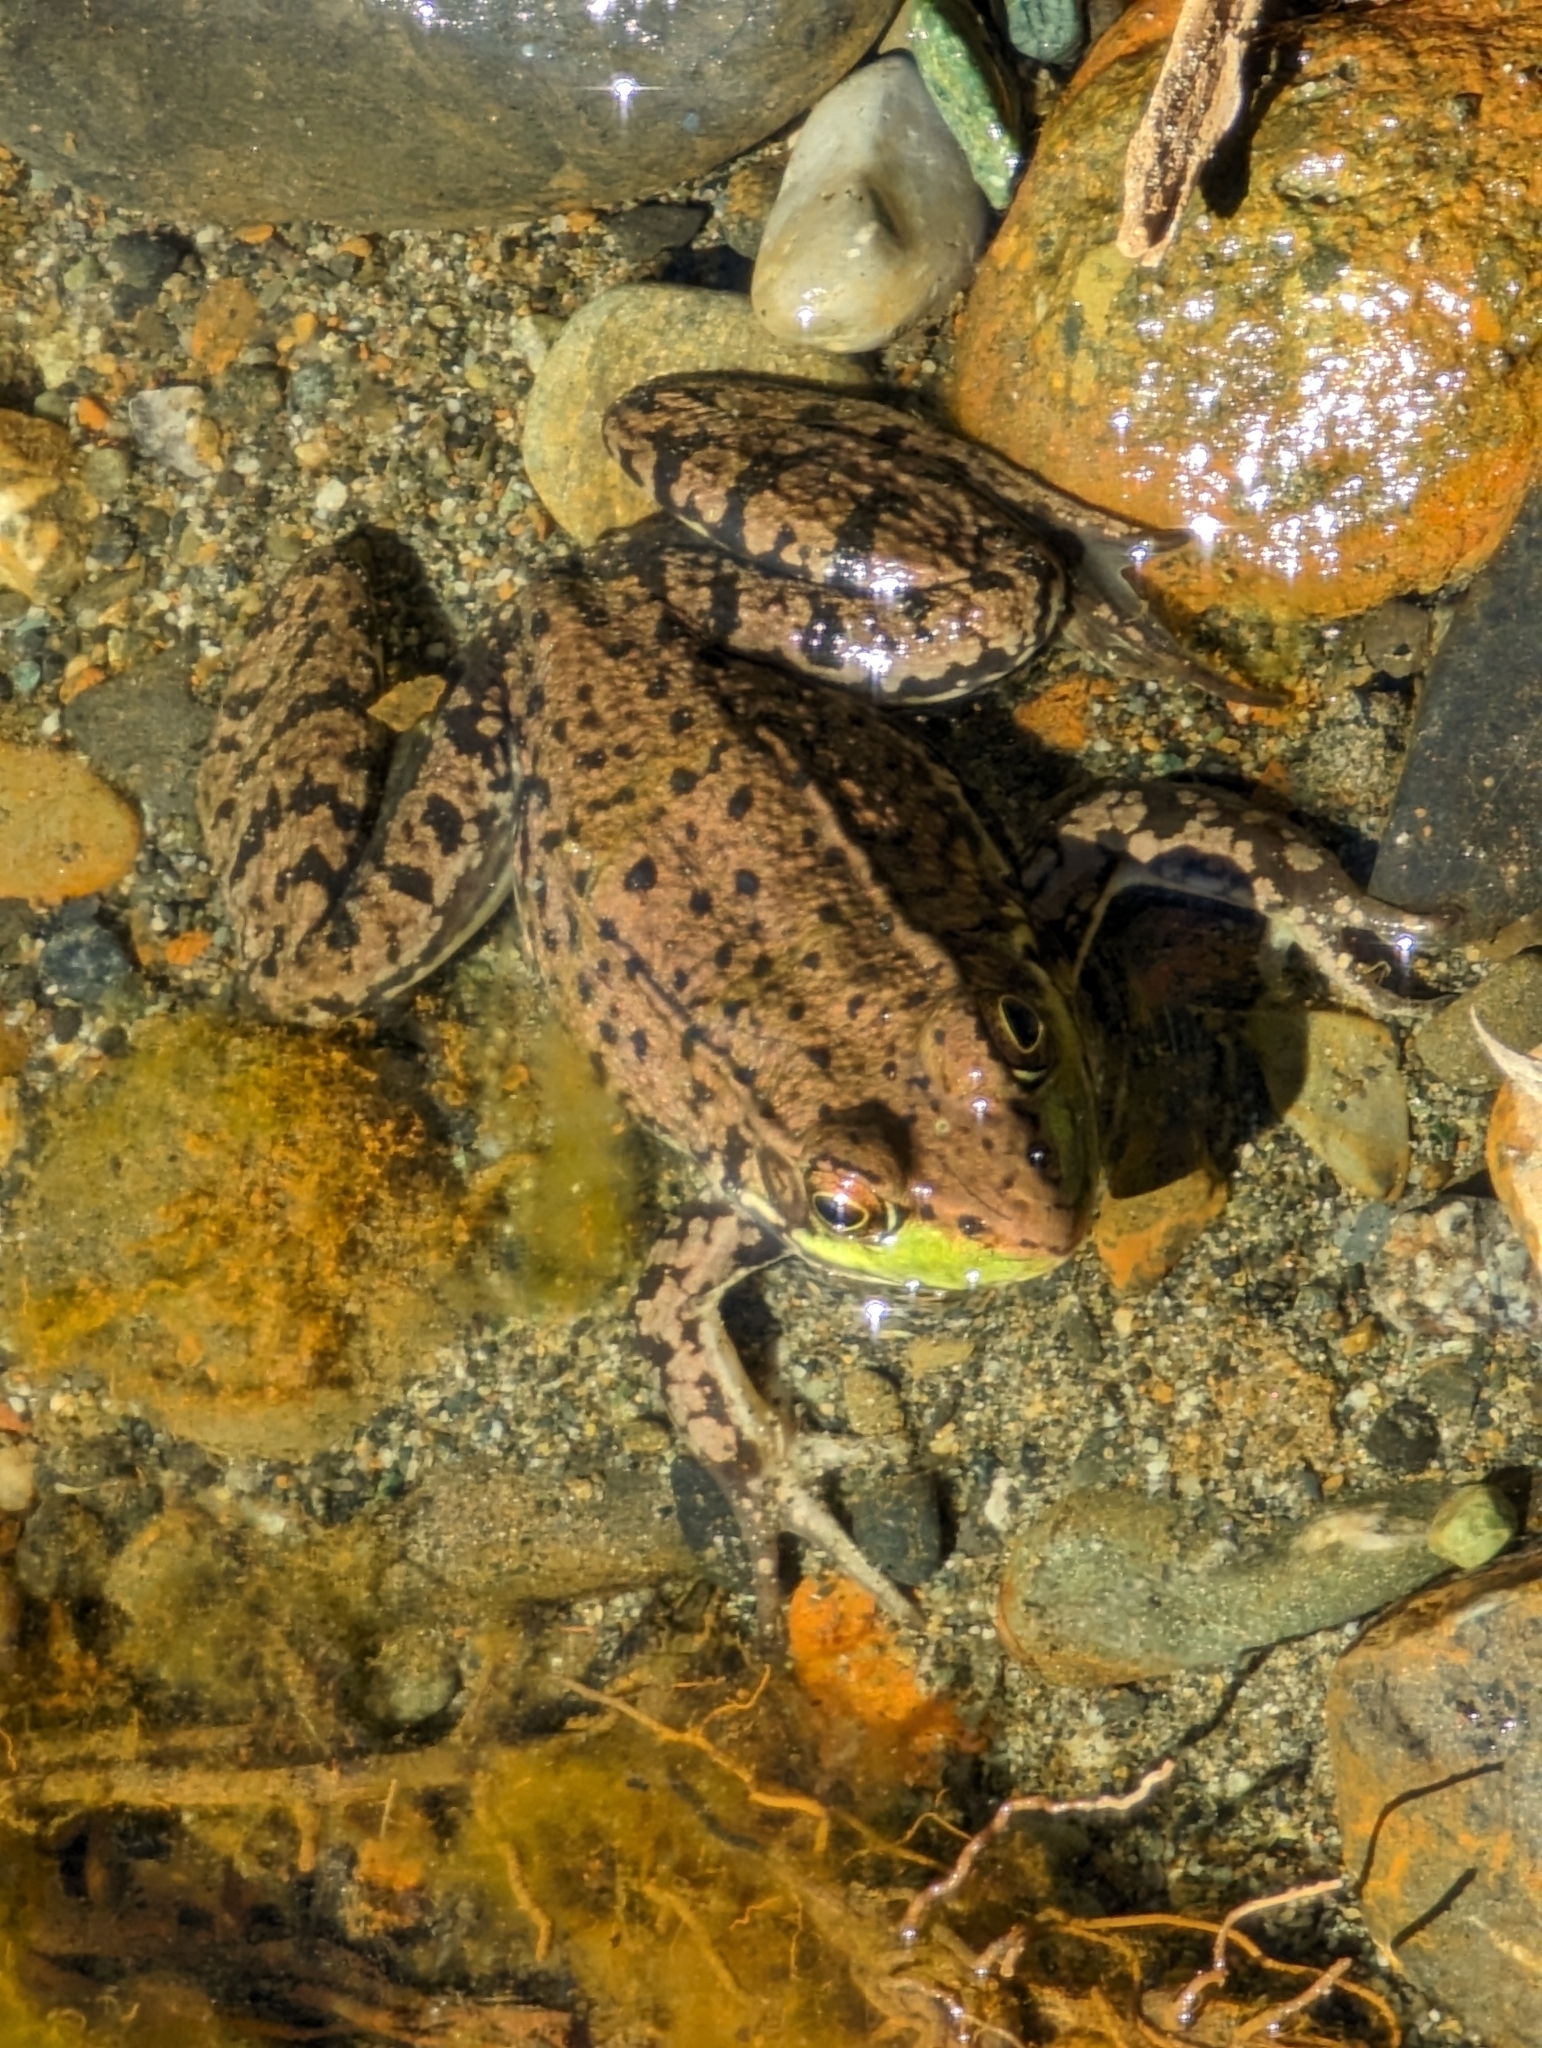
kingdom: Animalia
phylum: Chordata
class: Amphibia
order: Anura
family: Ranidae
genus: Lithobates
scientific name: Lithobates clamitans
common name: Green frog
